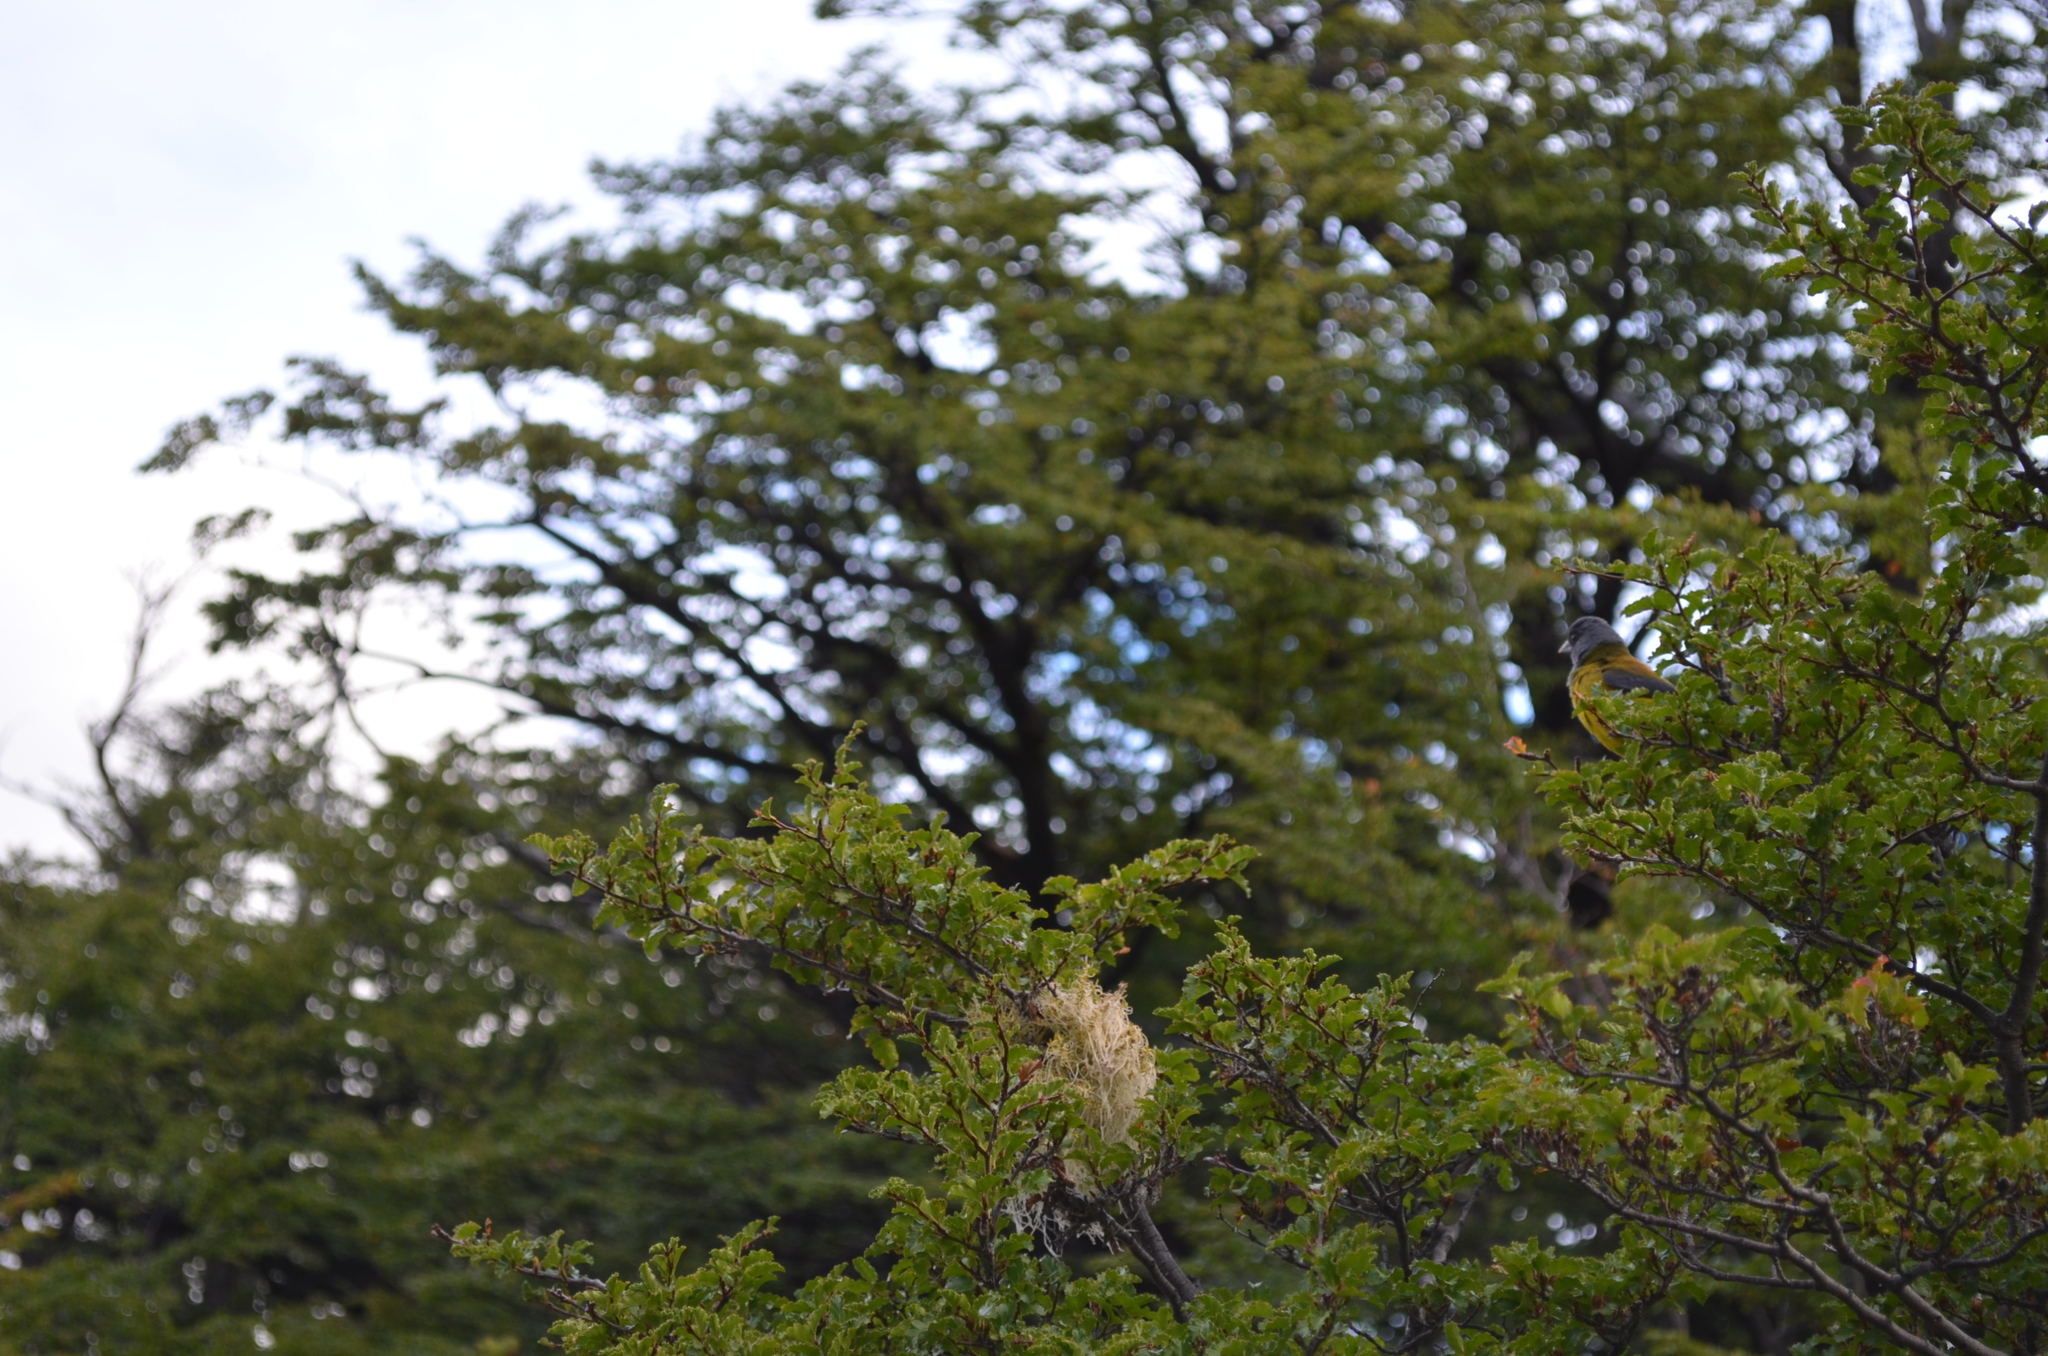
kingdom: Animalia
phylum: Chordata
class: Aves
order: Passeriformes
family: Thraupidae
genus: Phrygilus
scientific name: Phrygilus patagonicus
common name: Patagonian sierra finch
